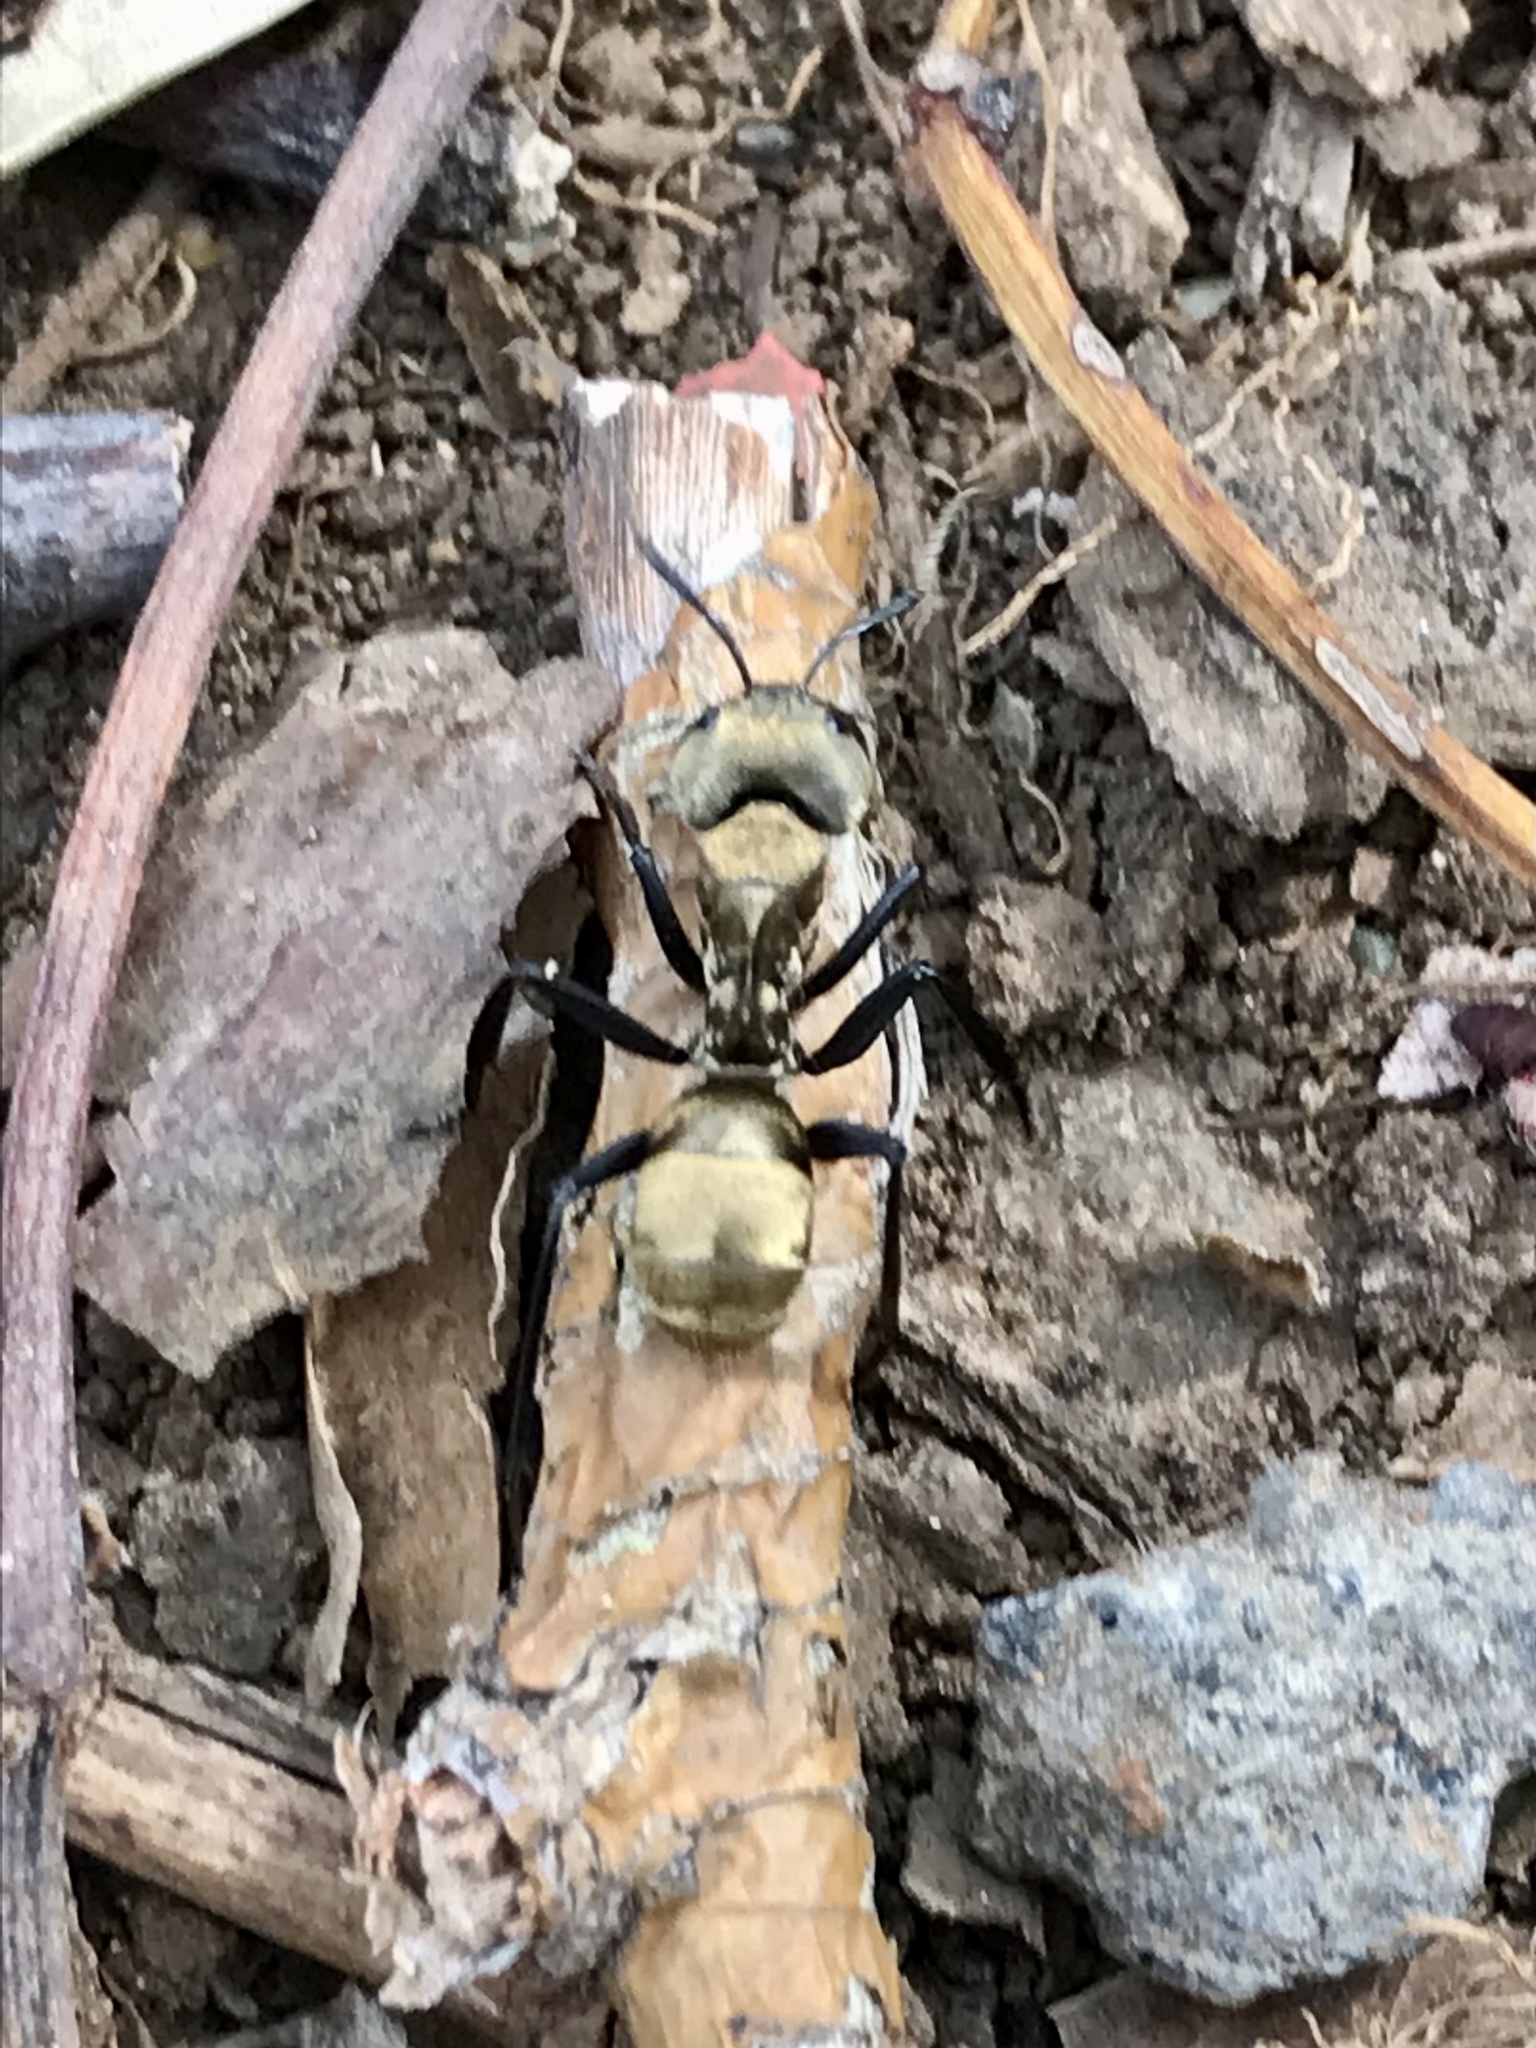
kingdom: Animalia
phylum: Arthropoda
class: Insecta
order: Hymenoptera
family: Formicidae
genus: Camponotus
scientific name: Camponotus sericeiventris
